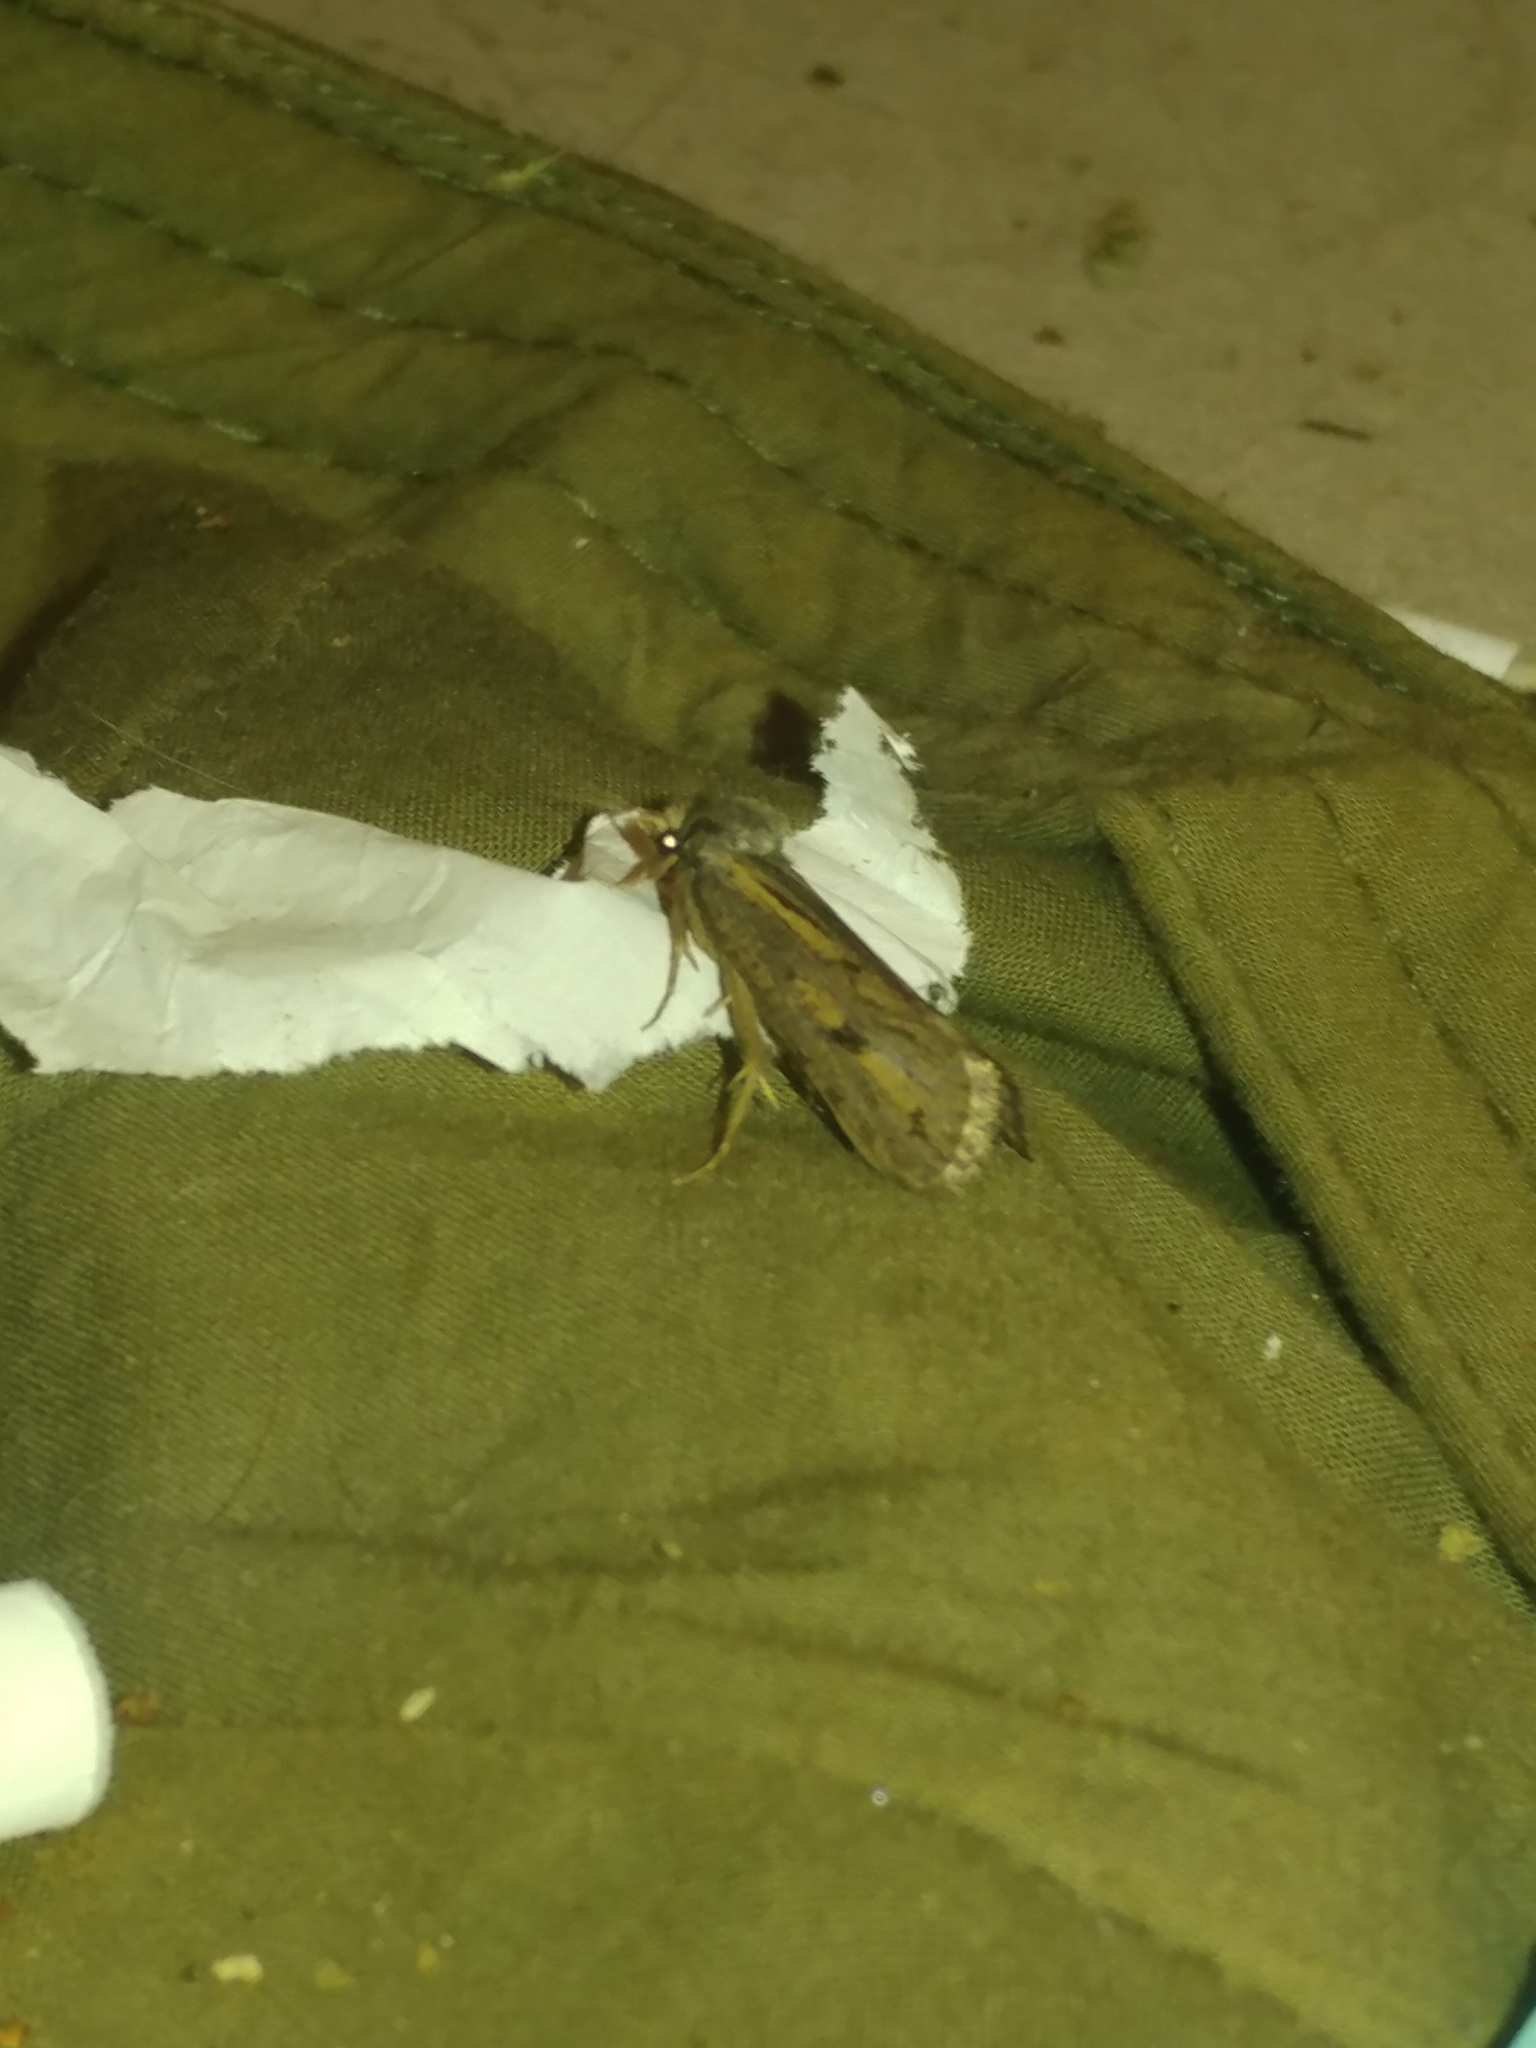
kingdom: Animalia
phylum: Arthropoda
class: Insecta
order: Lepidoptera
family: Tineidae
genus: Acrolophus
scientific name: Acrolophus popeanella
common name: Clemens' grass tubeworm moth
